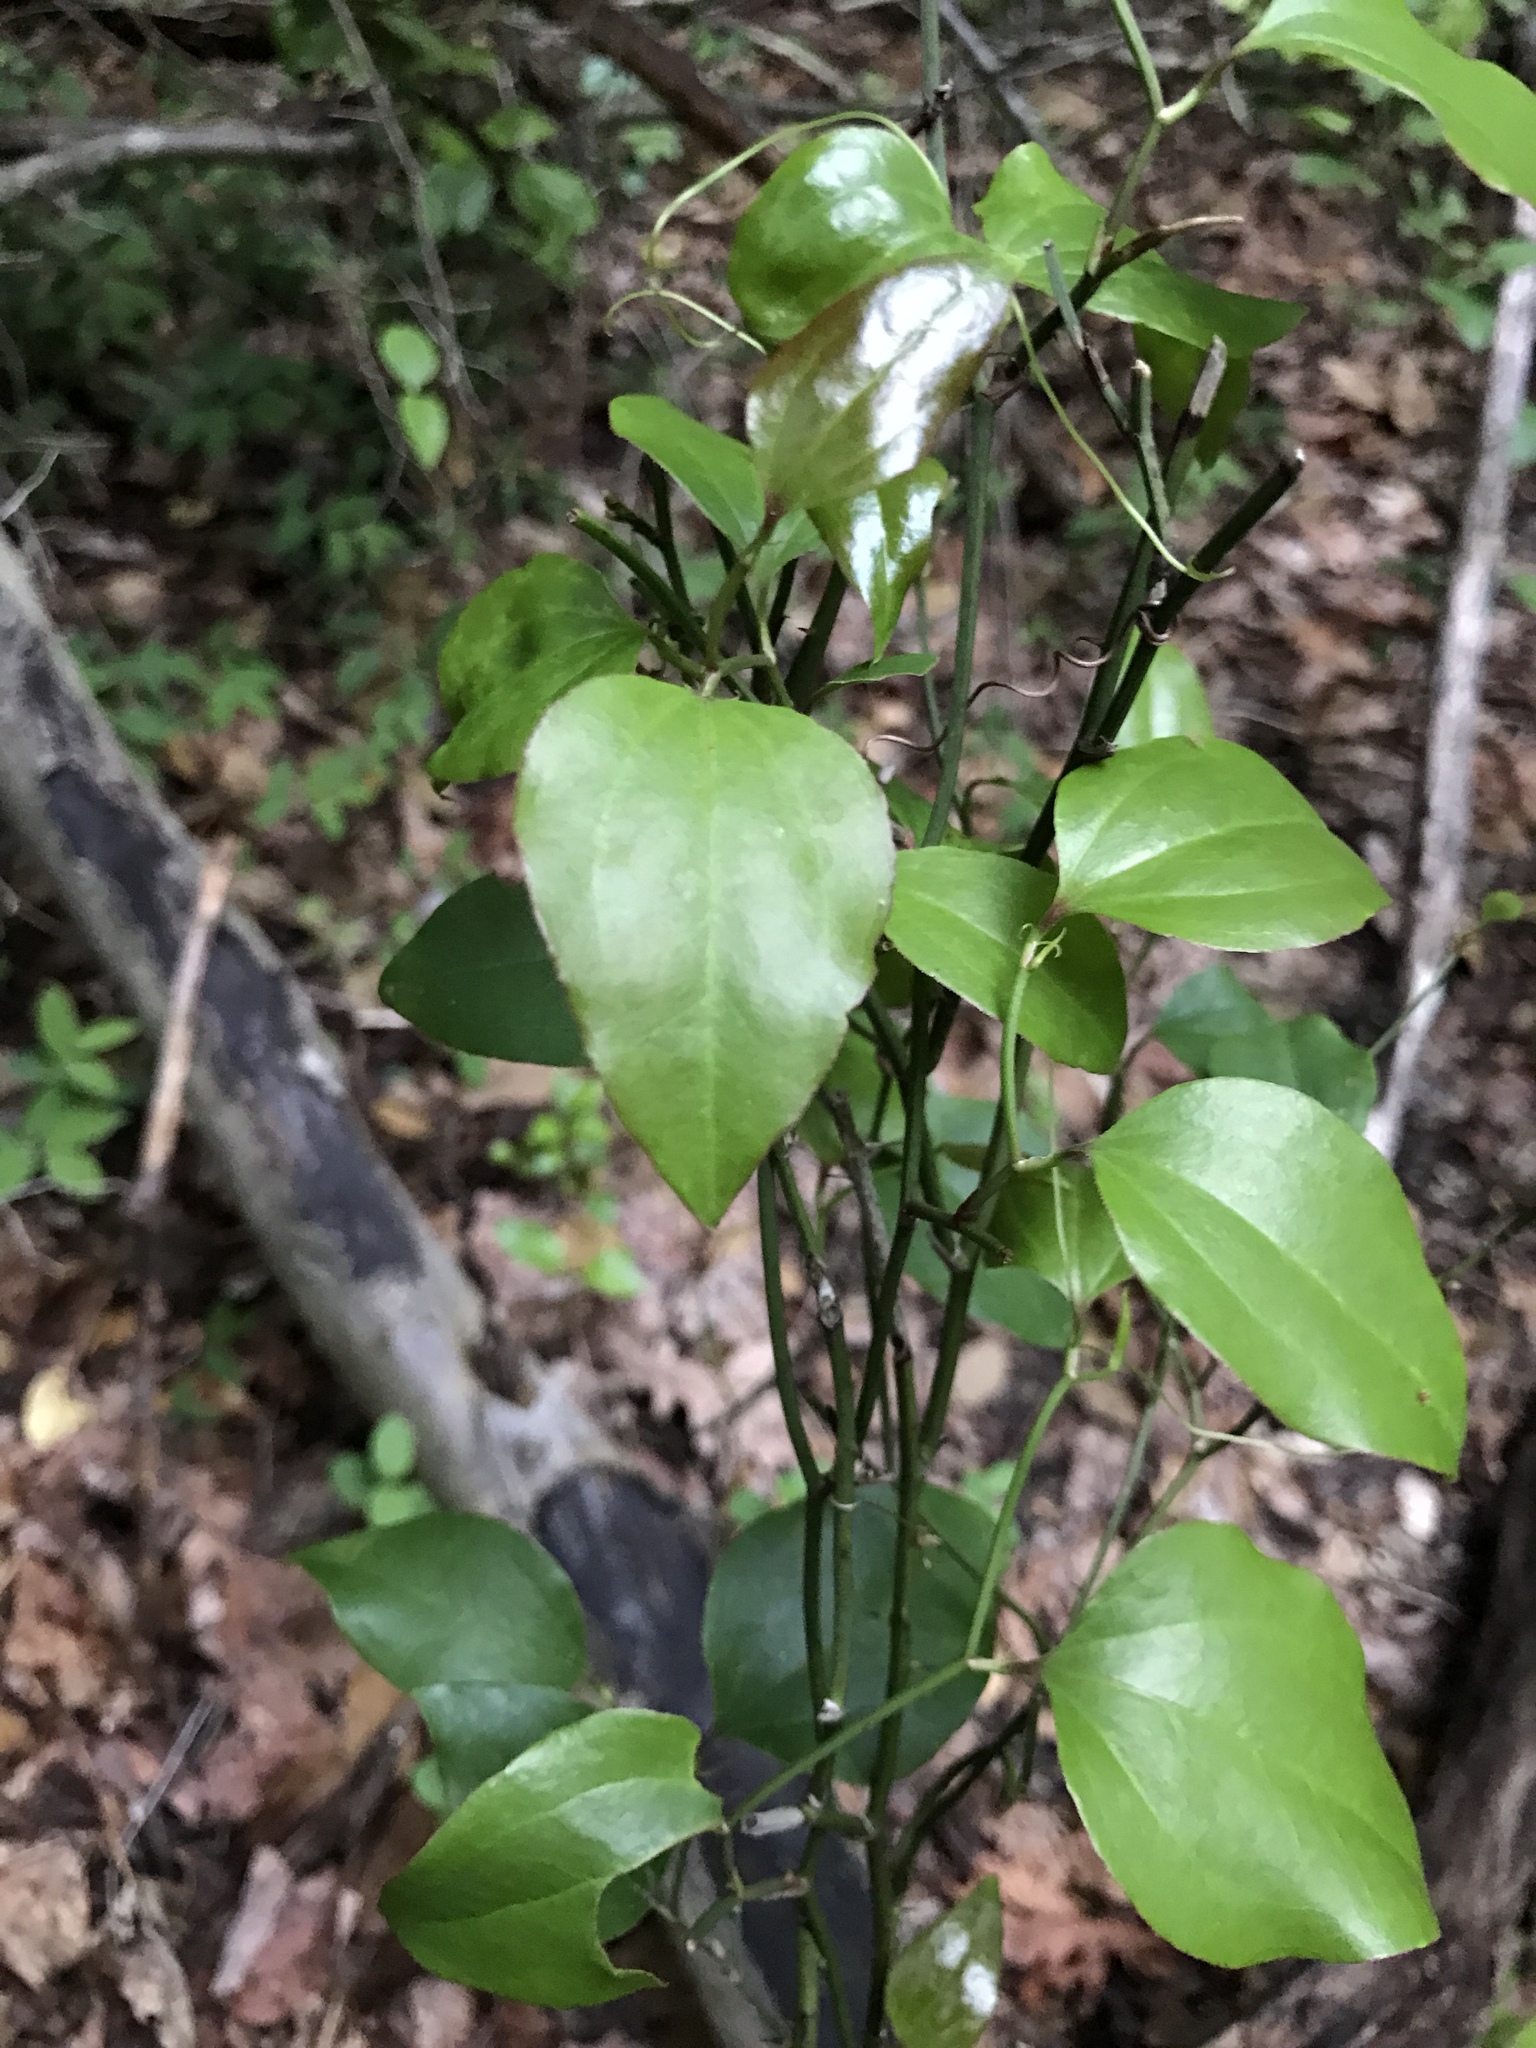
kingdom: Plantae
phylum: Tracheophyta
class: Liliopsida
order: Liliales
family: Smilacaceae
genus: Smilax
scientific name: Smilax rotundifolia
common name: Bullbriar
